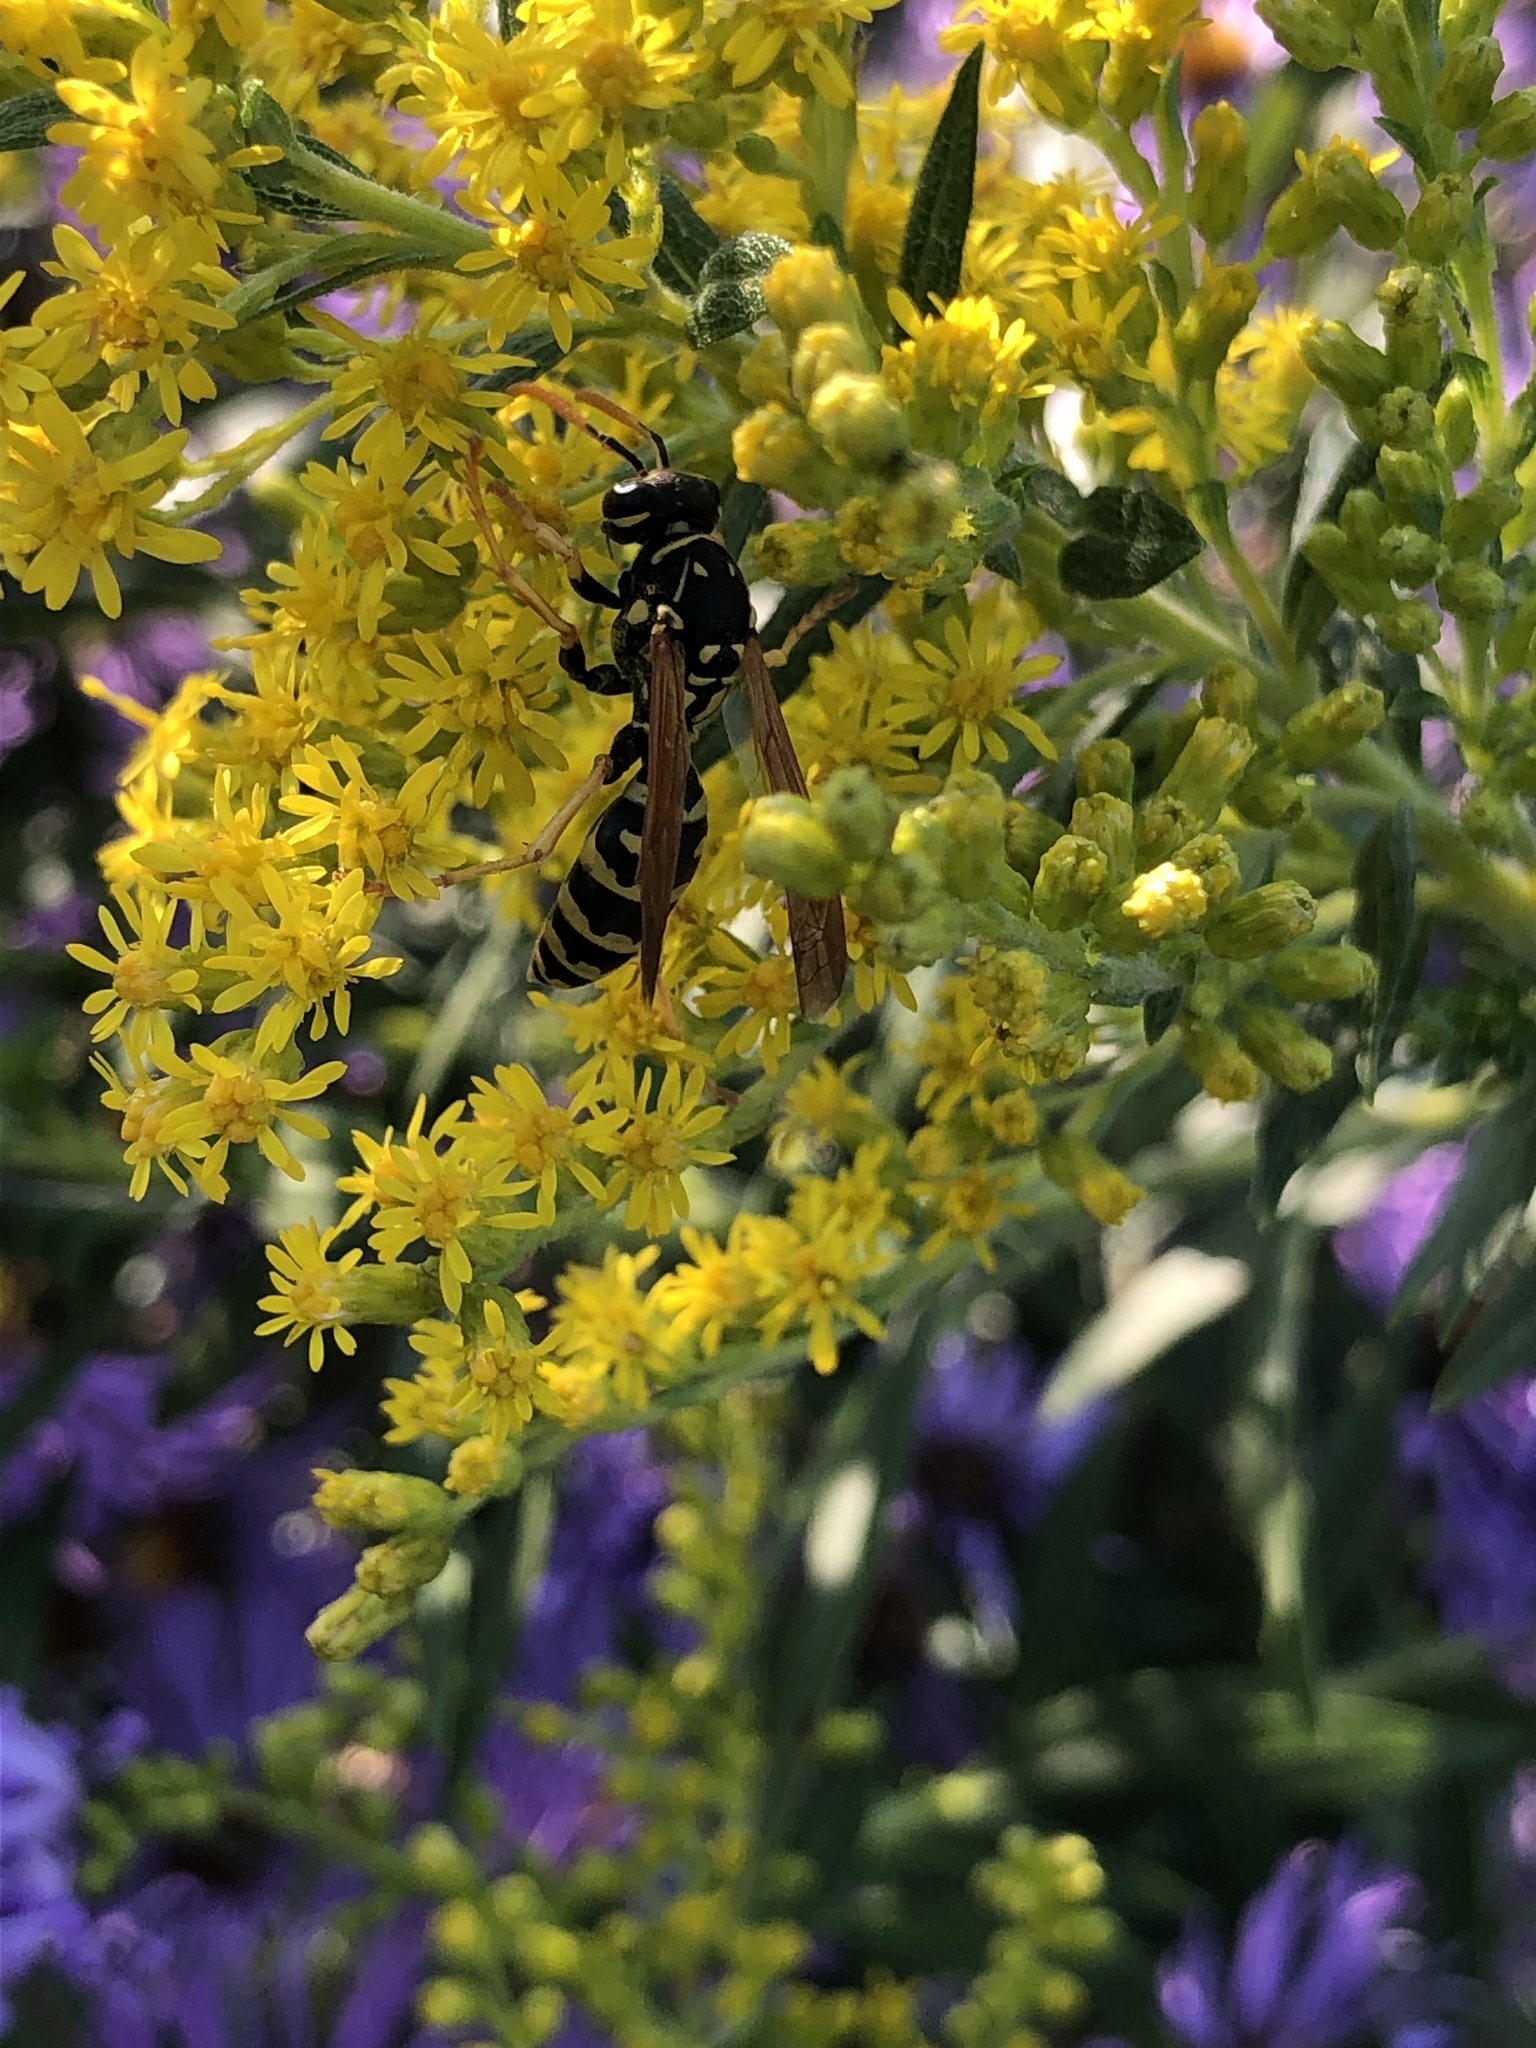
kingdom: Animalia
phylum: Arthropoda
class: Insecta
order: Hymenoptera
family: Eumenidae
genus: Polistes
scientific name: Polistes dominula
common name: Paper wasp
